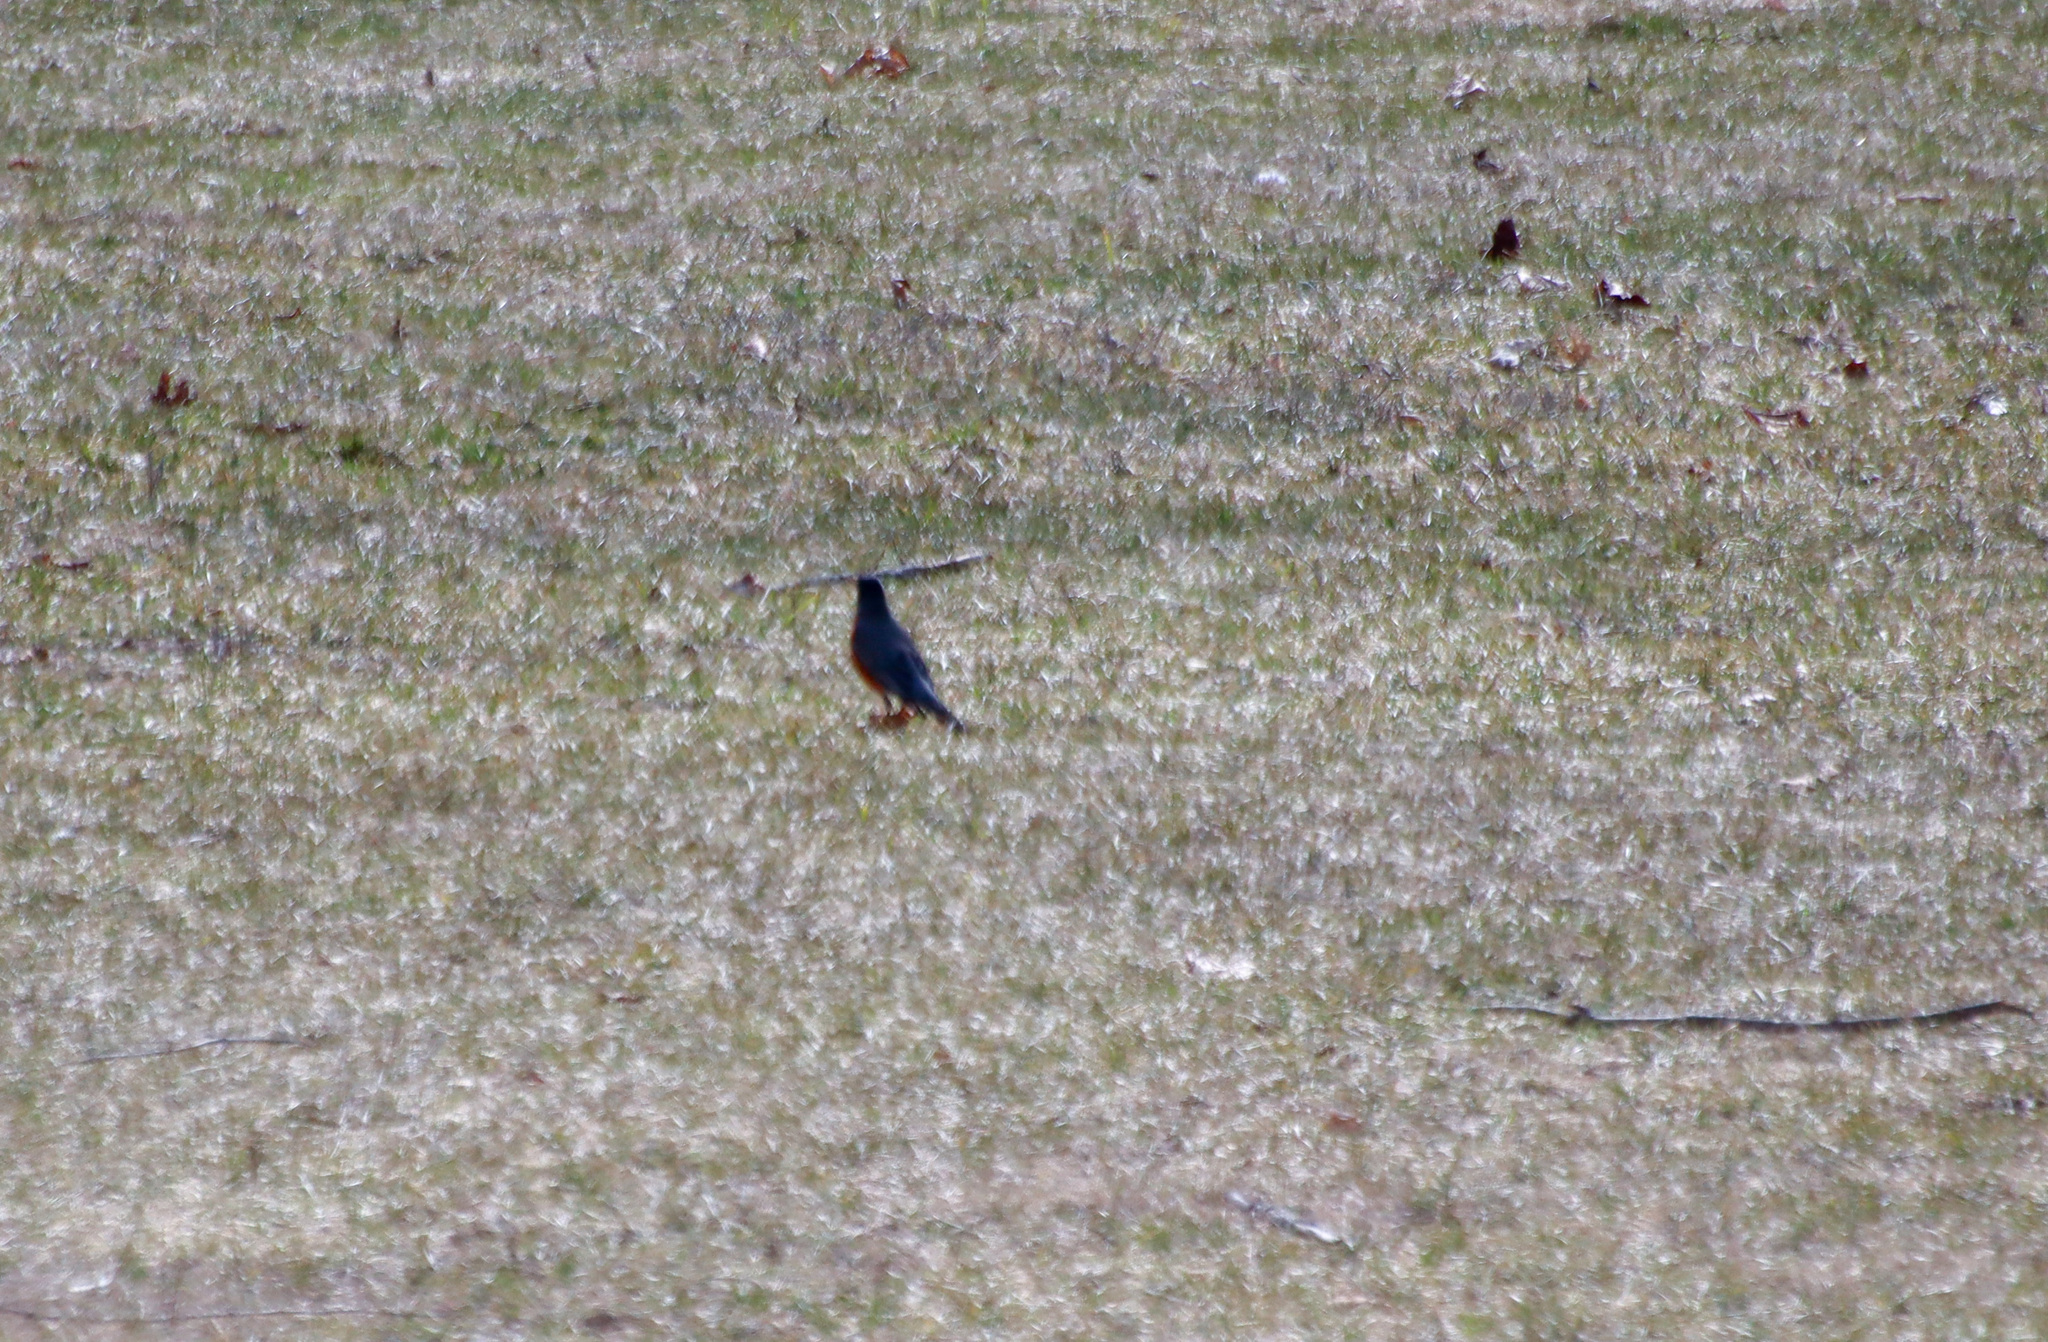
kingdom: Animalia
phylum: Chordata
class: Aves
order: Passeriformes
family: Turdidae
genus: Turdus
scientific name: Turdus migratorius
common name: American robin
